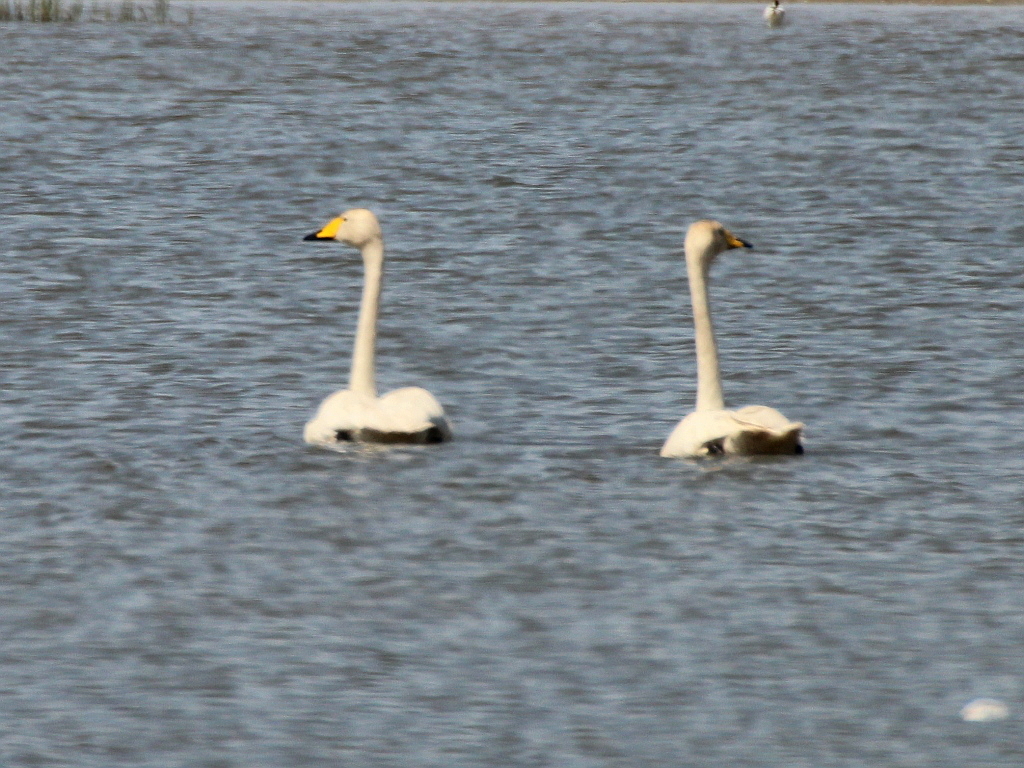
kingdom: Animalia
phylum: Chordata
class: Aves
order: Anseriformes
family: Anatidae
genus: Cygnus
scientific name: Cygnus cygnus
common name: Whooper swan
